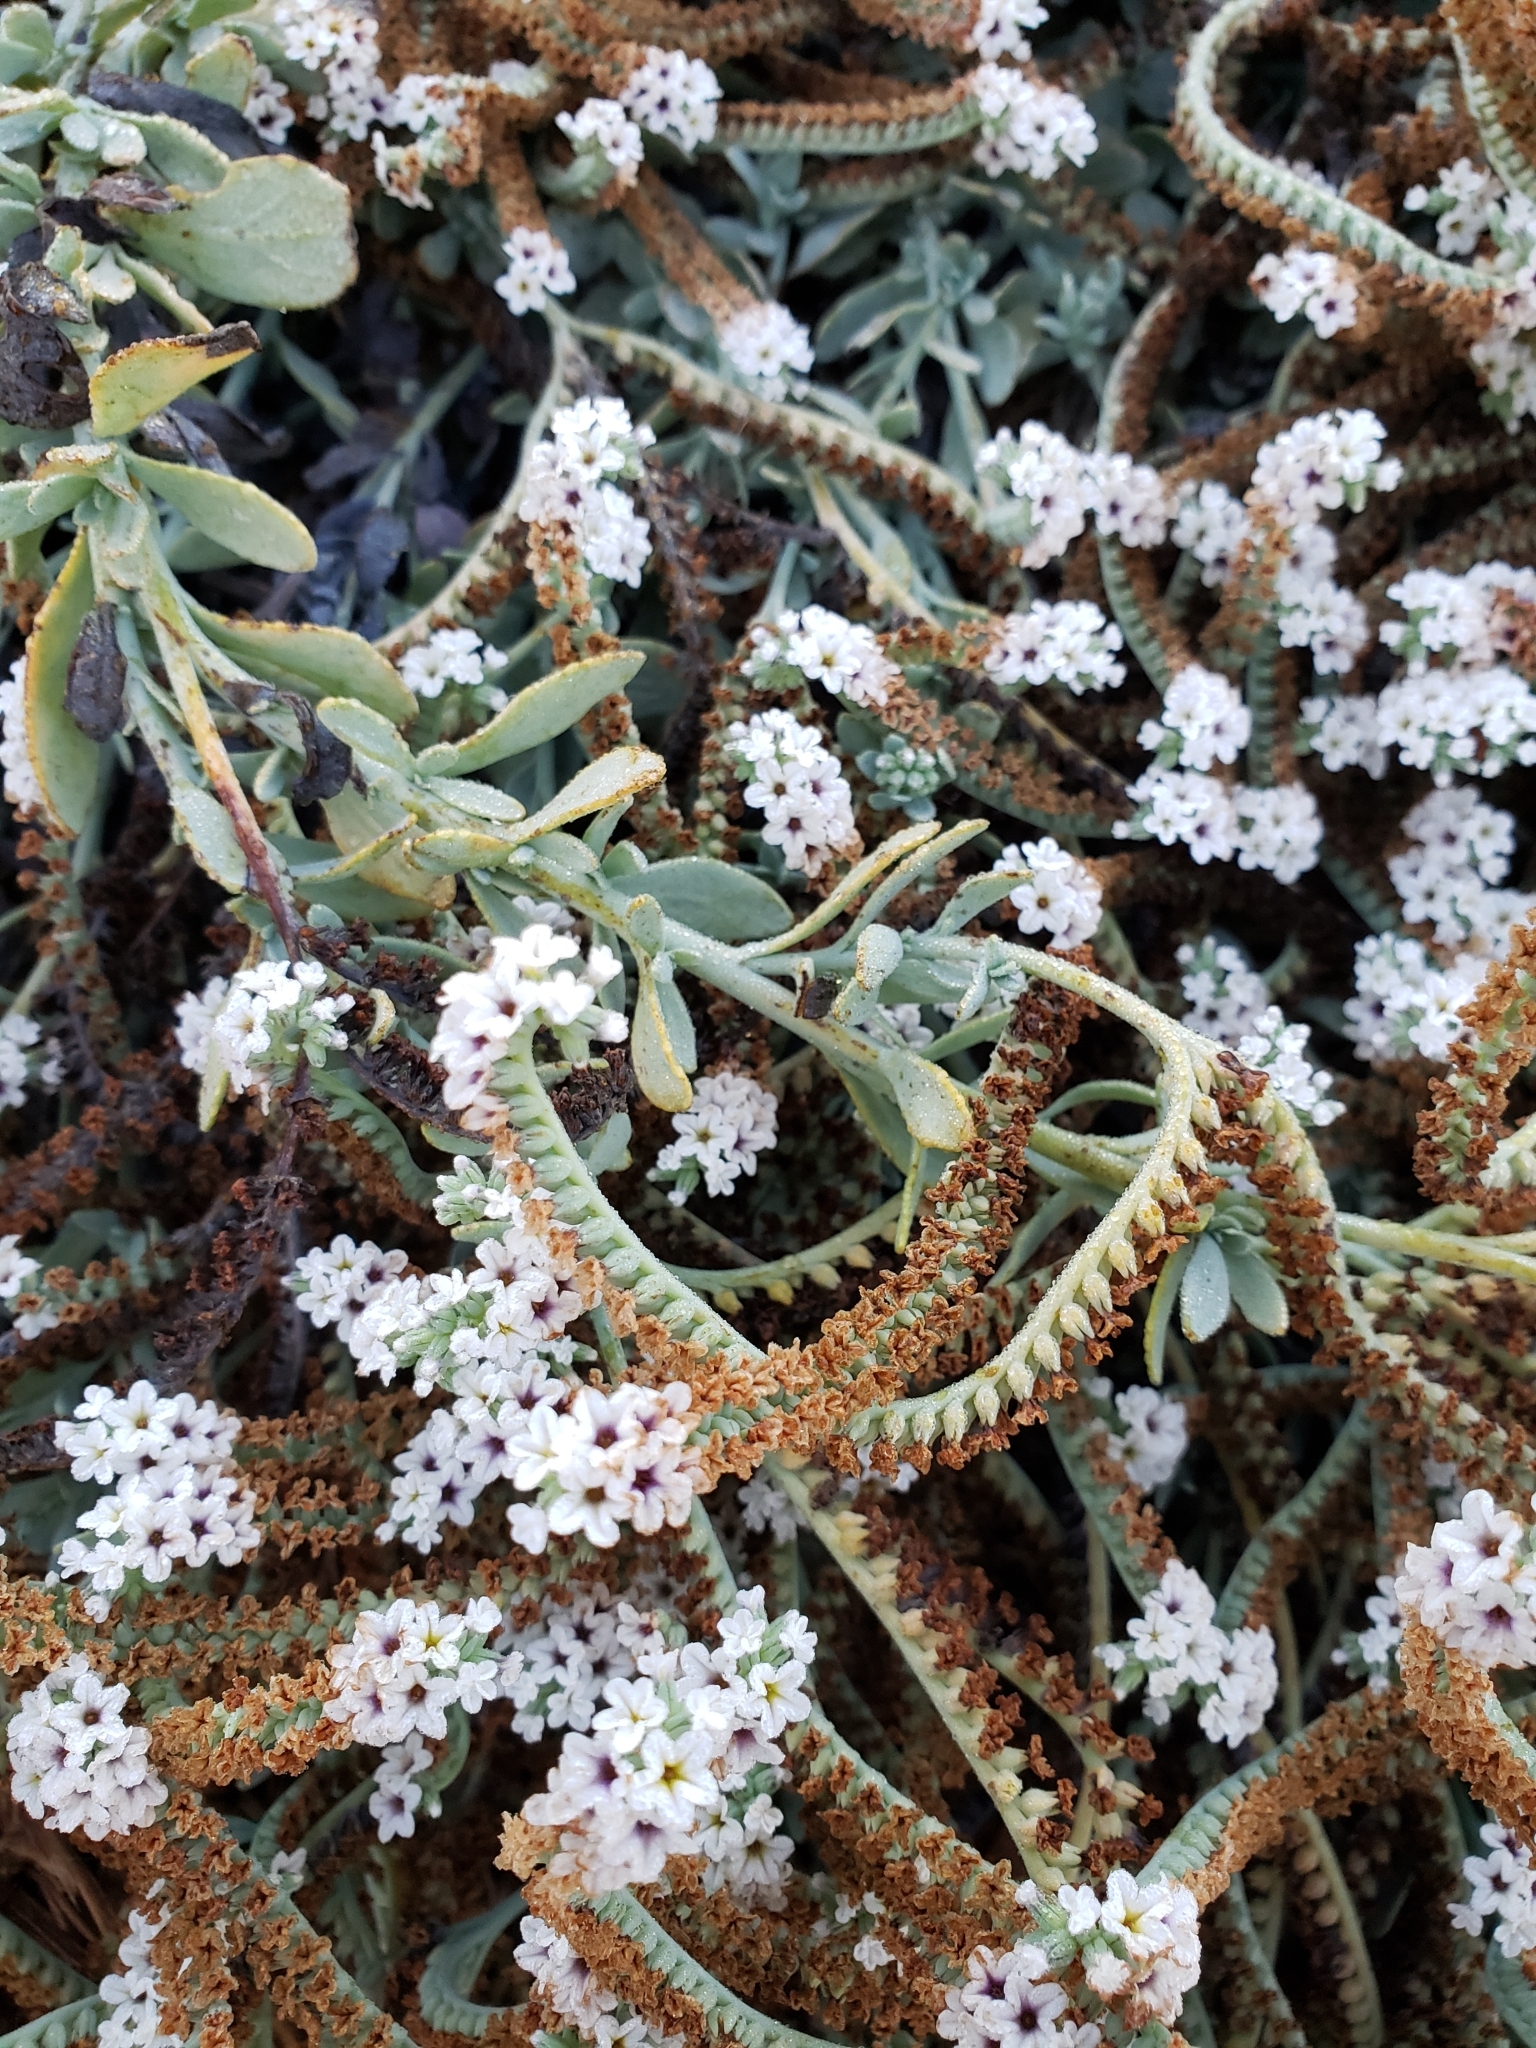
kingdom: Plantae
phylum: Tracheophyta
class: Magnoliopsida
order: Boraginales
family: Heliotropiaceae
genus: Heliotropium
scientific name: Heliotropium curassavicum
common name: Seaside heliotrope
